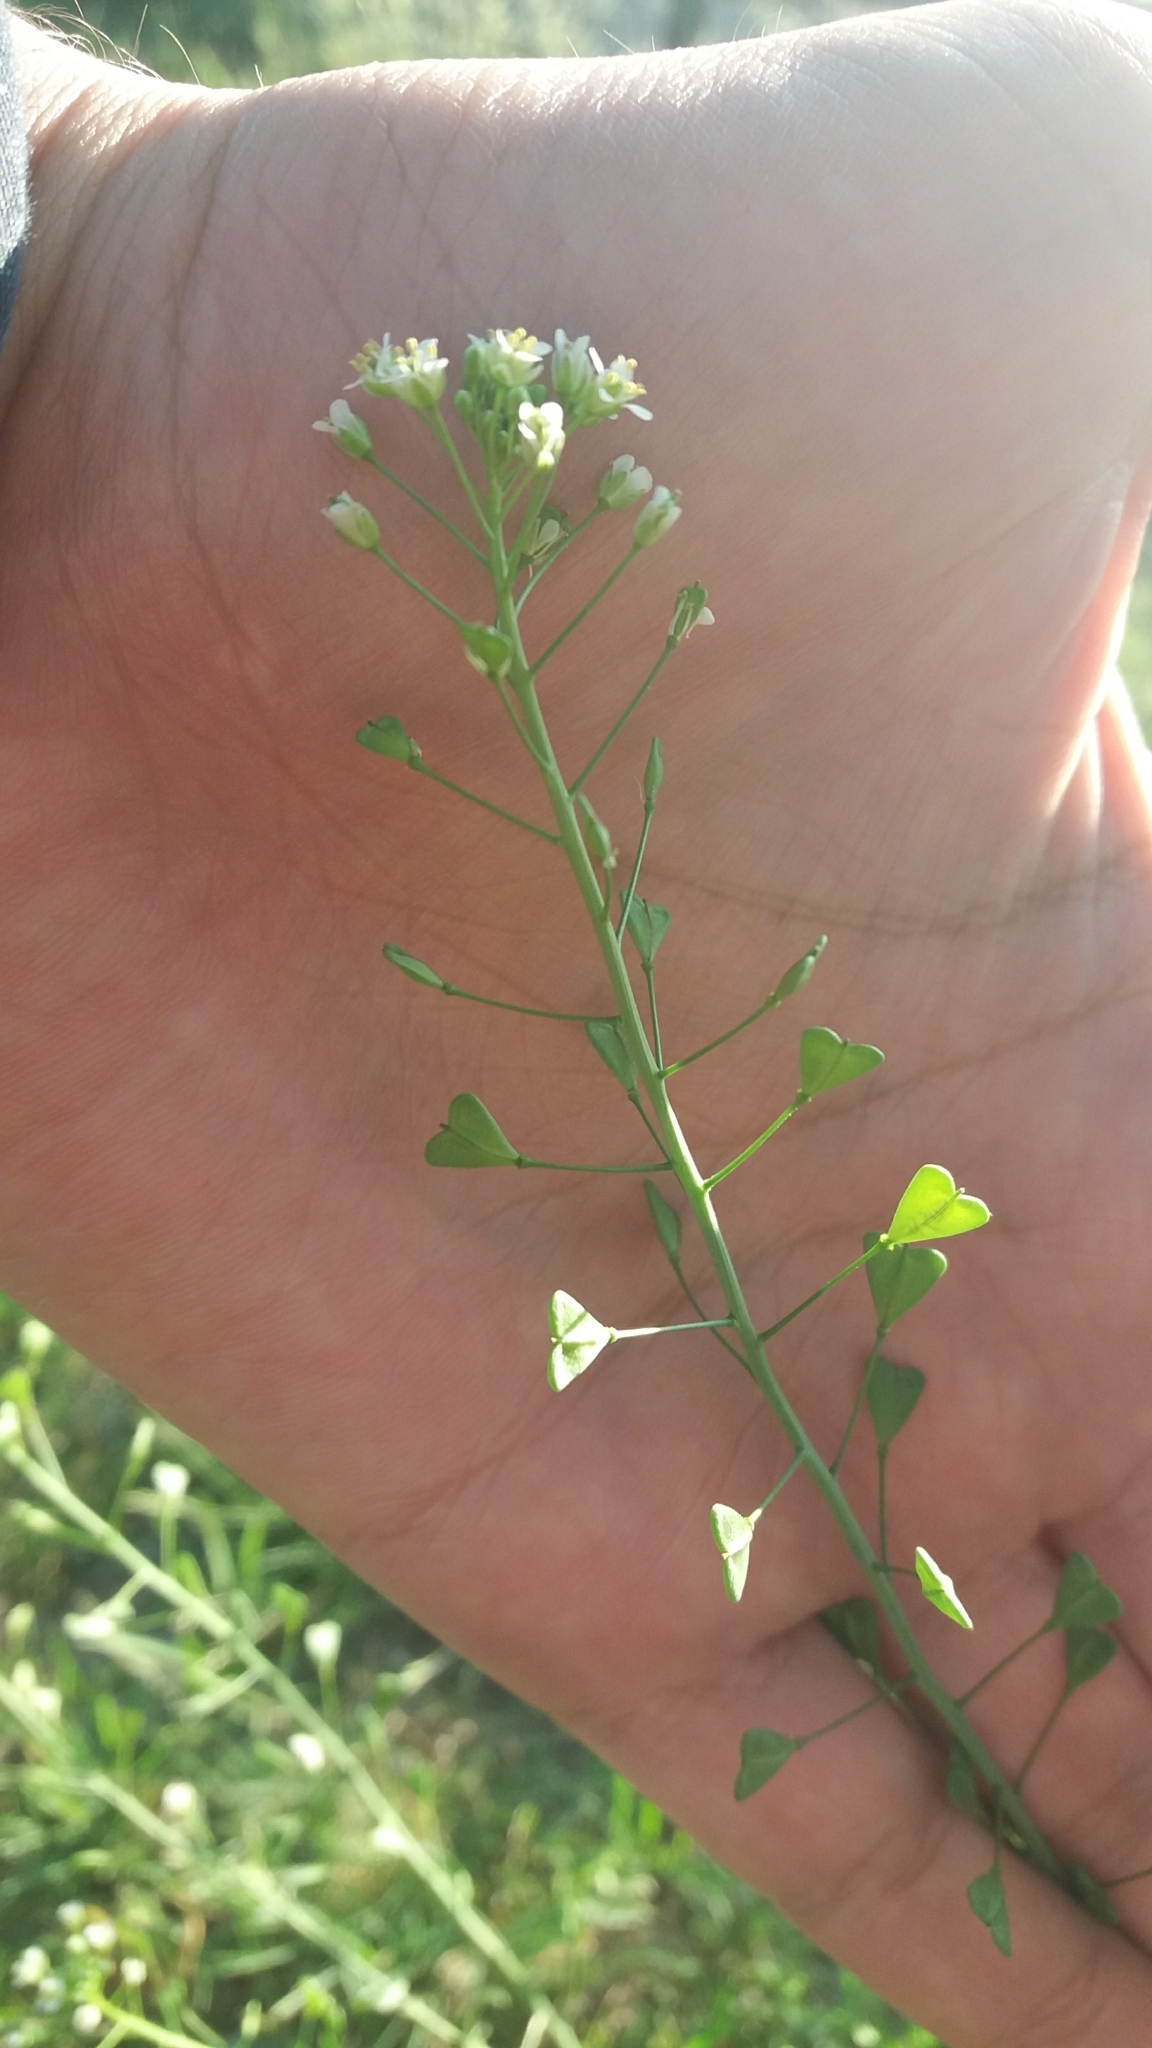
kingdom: Plantae
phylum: Tracheophyta
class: Magnoliopsida
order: Brassicales
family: Brassicaceae
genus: Capsella
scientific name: Capsella bursa-pastoris
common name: Shepherd's purse
